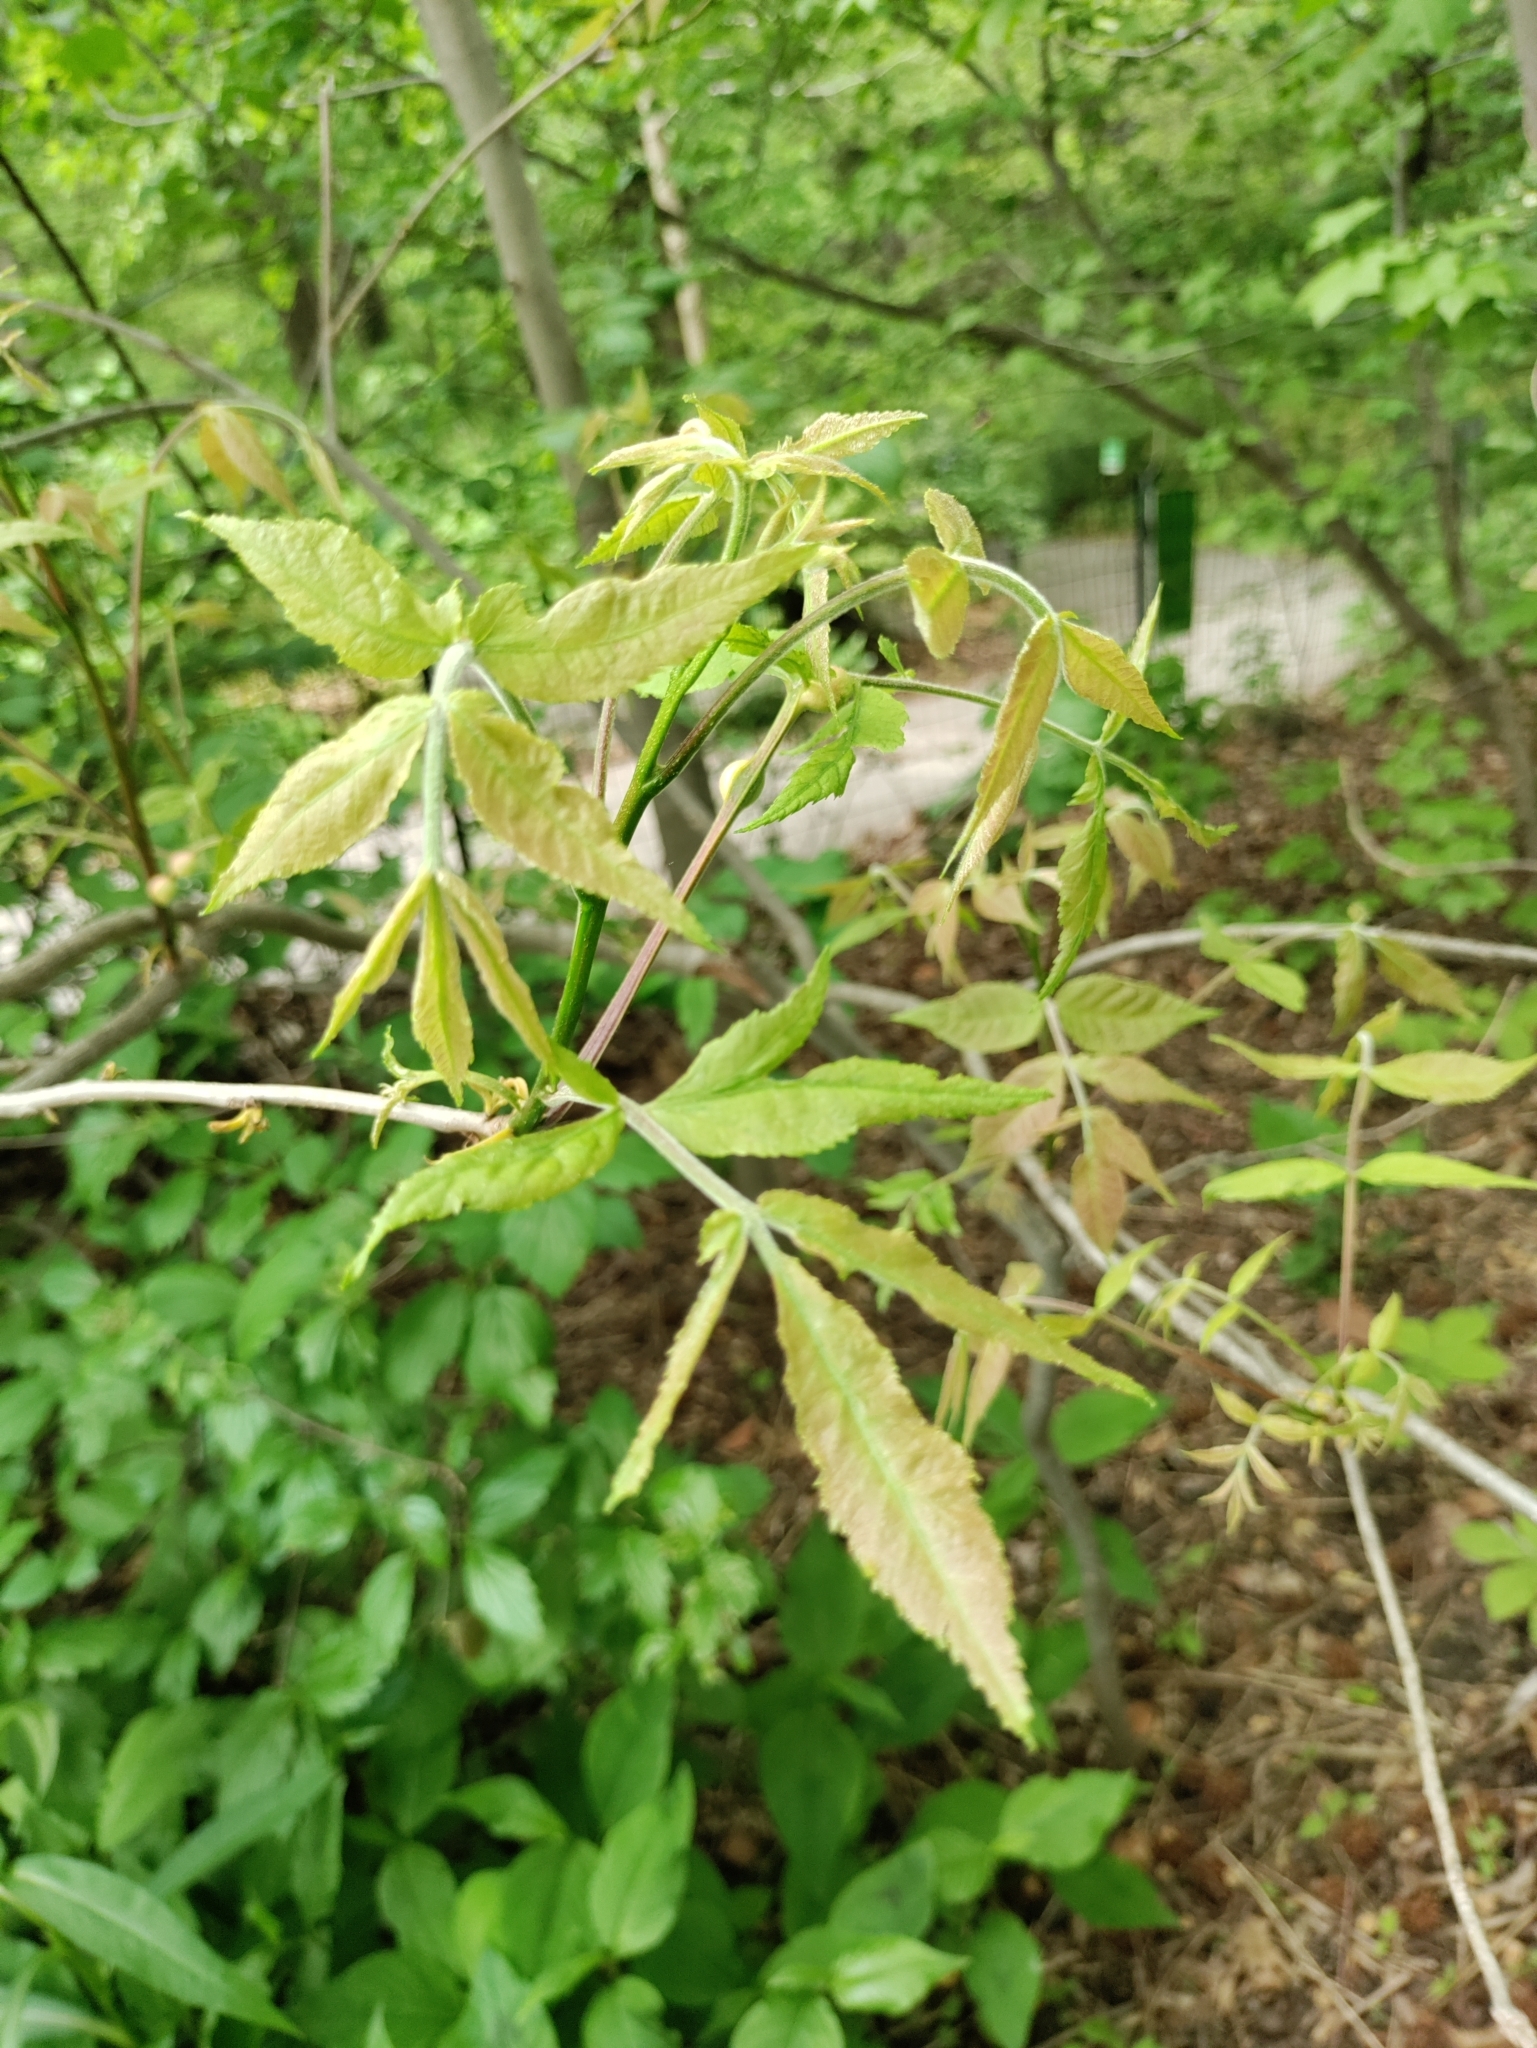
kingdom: Plantae
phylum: Tracheophyta
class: Magnoliopsida
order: Fagales
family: Juglandaceae
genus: Carya
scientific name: Carya cordiformis
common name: Bitternut hickory
